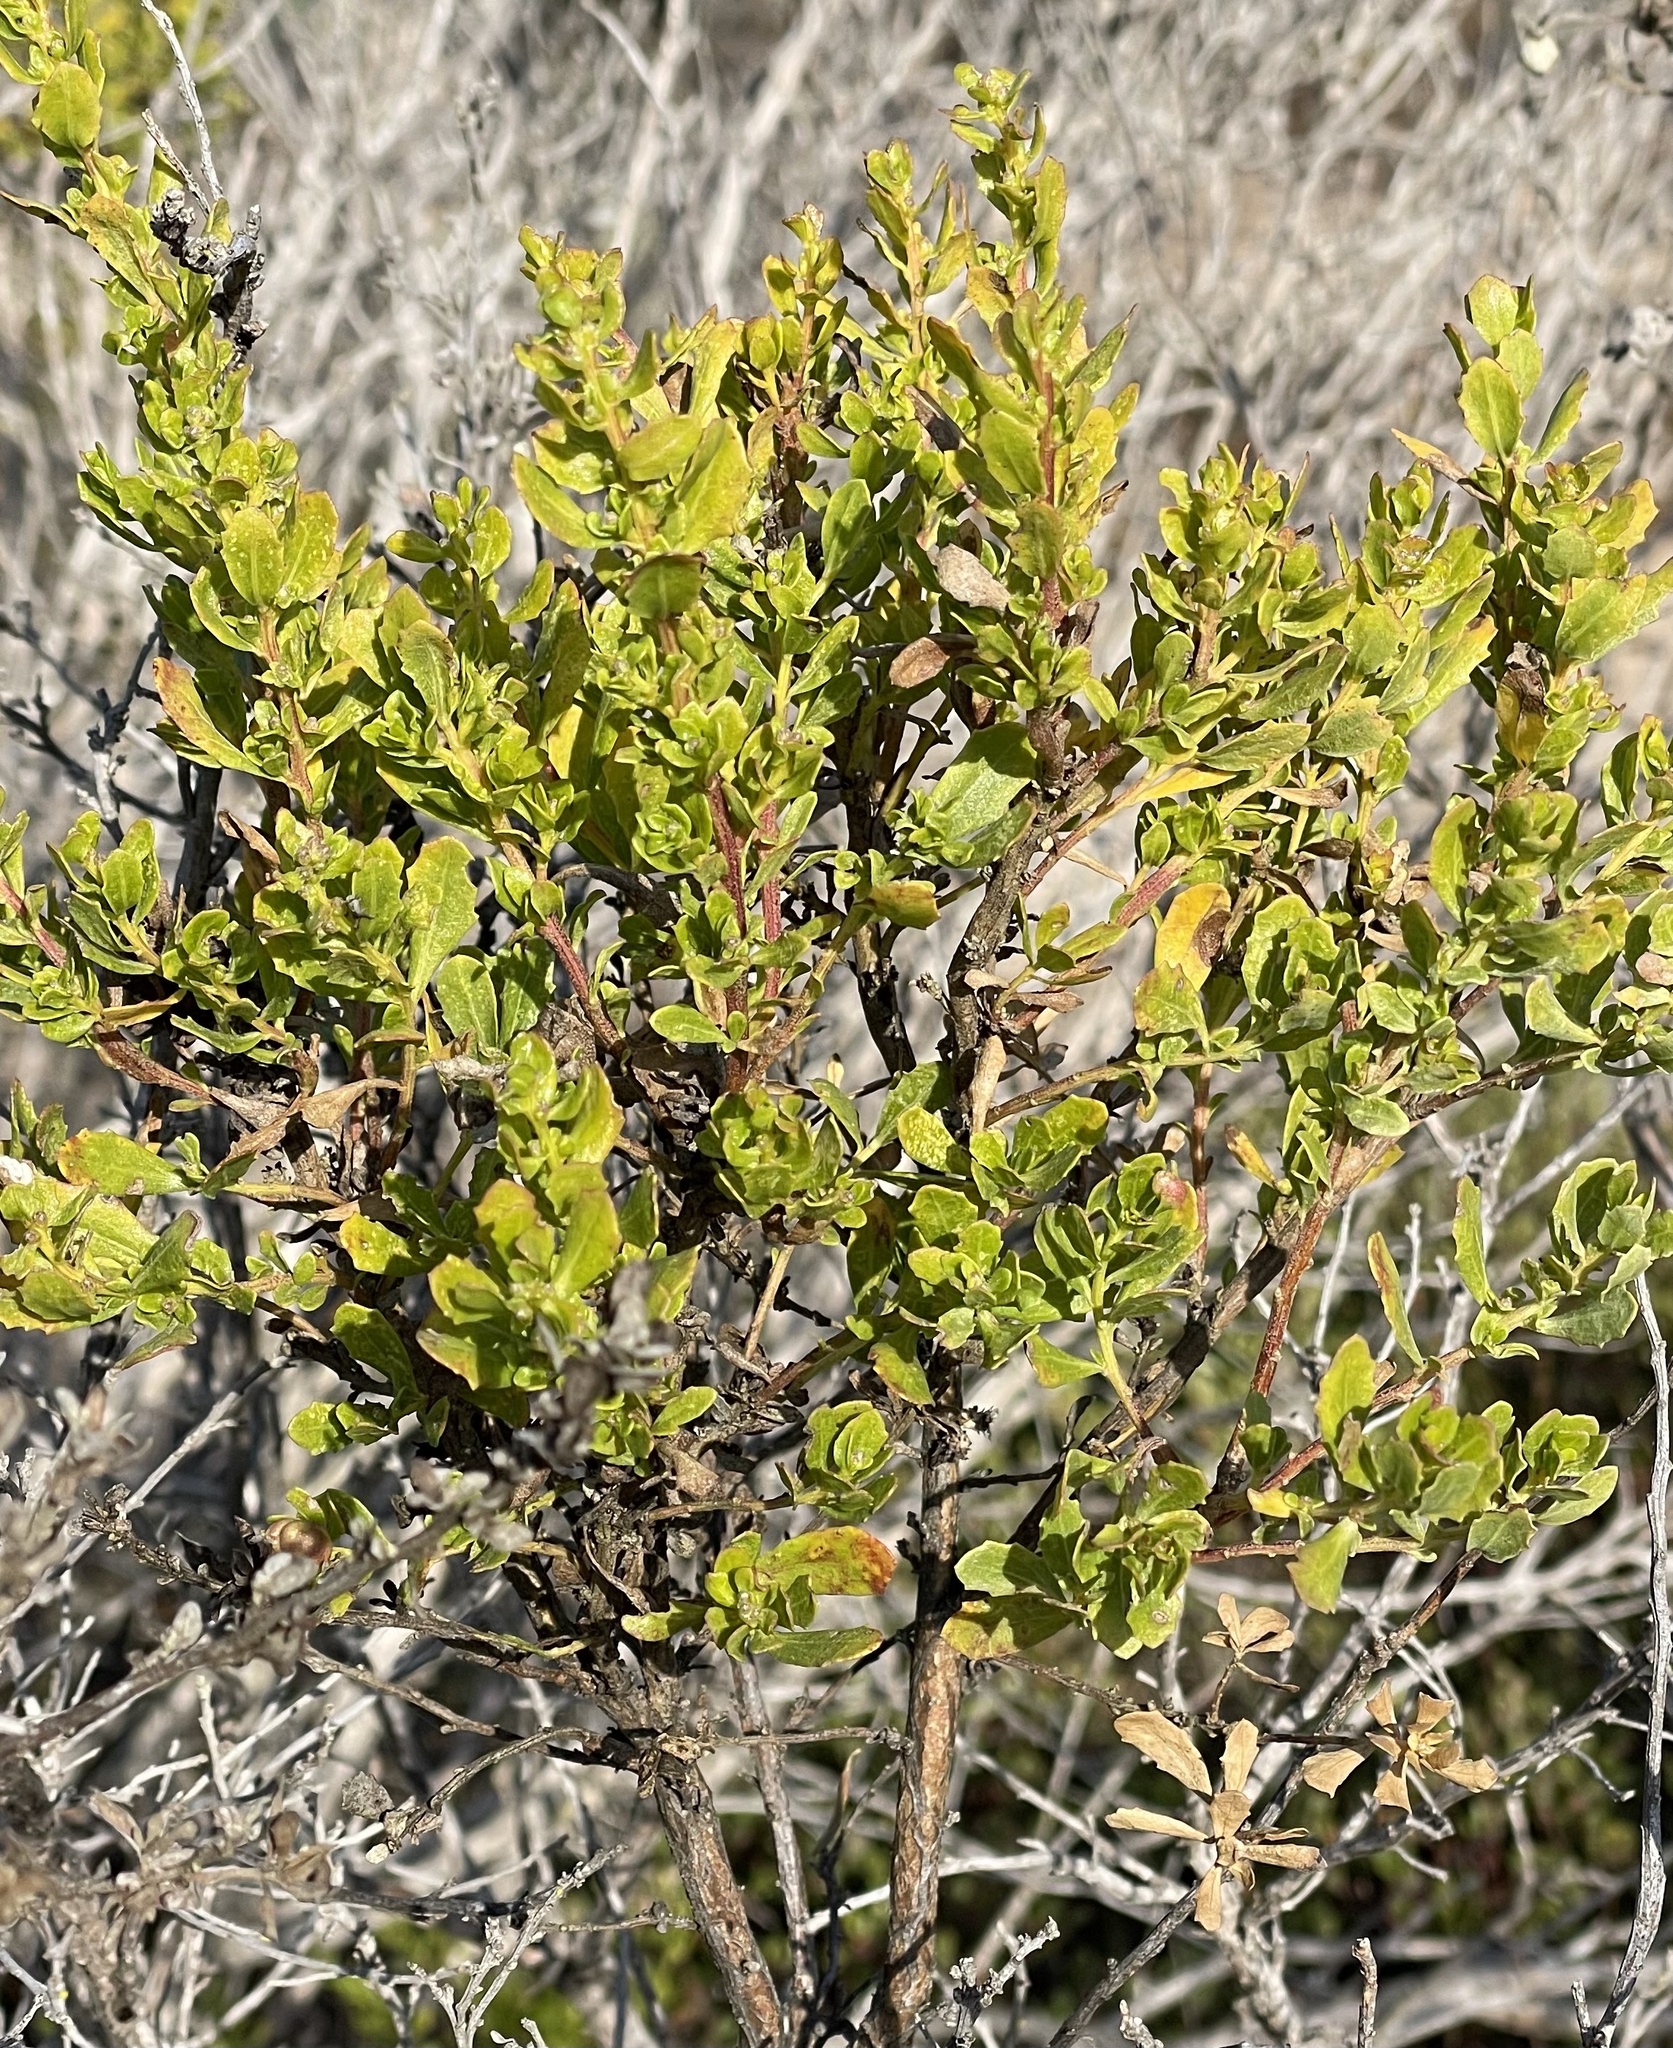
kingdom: Animalia
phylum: Arthropoda
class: Insecta
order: Diptera
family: Cecidomyiidae
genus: Rhopalomyia
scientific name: Rhopalomyia californica
